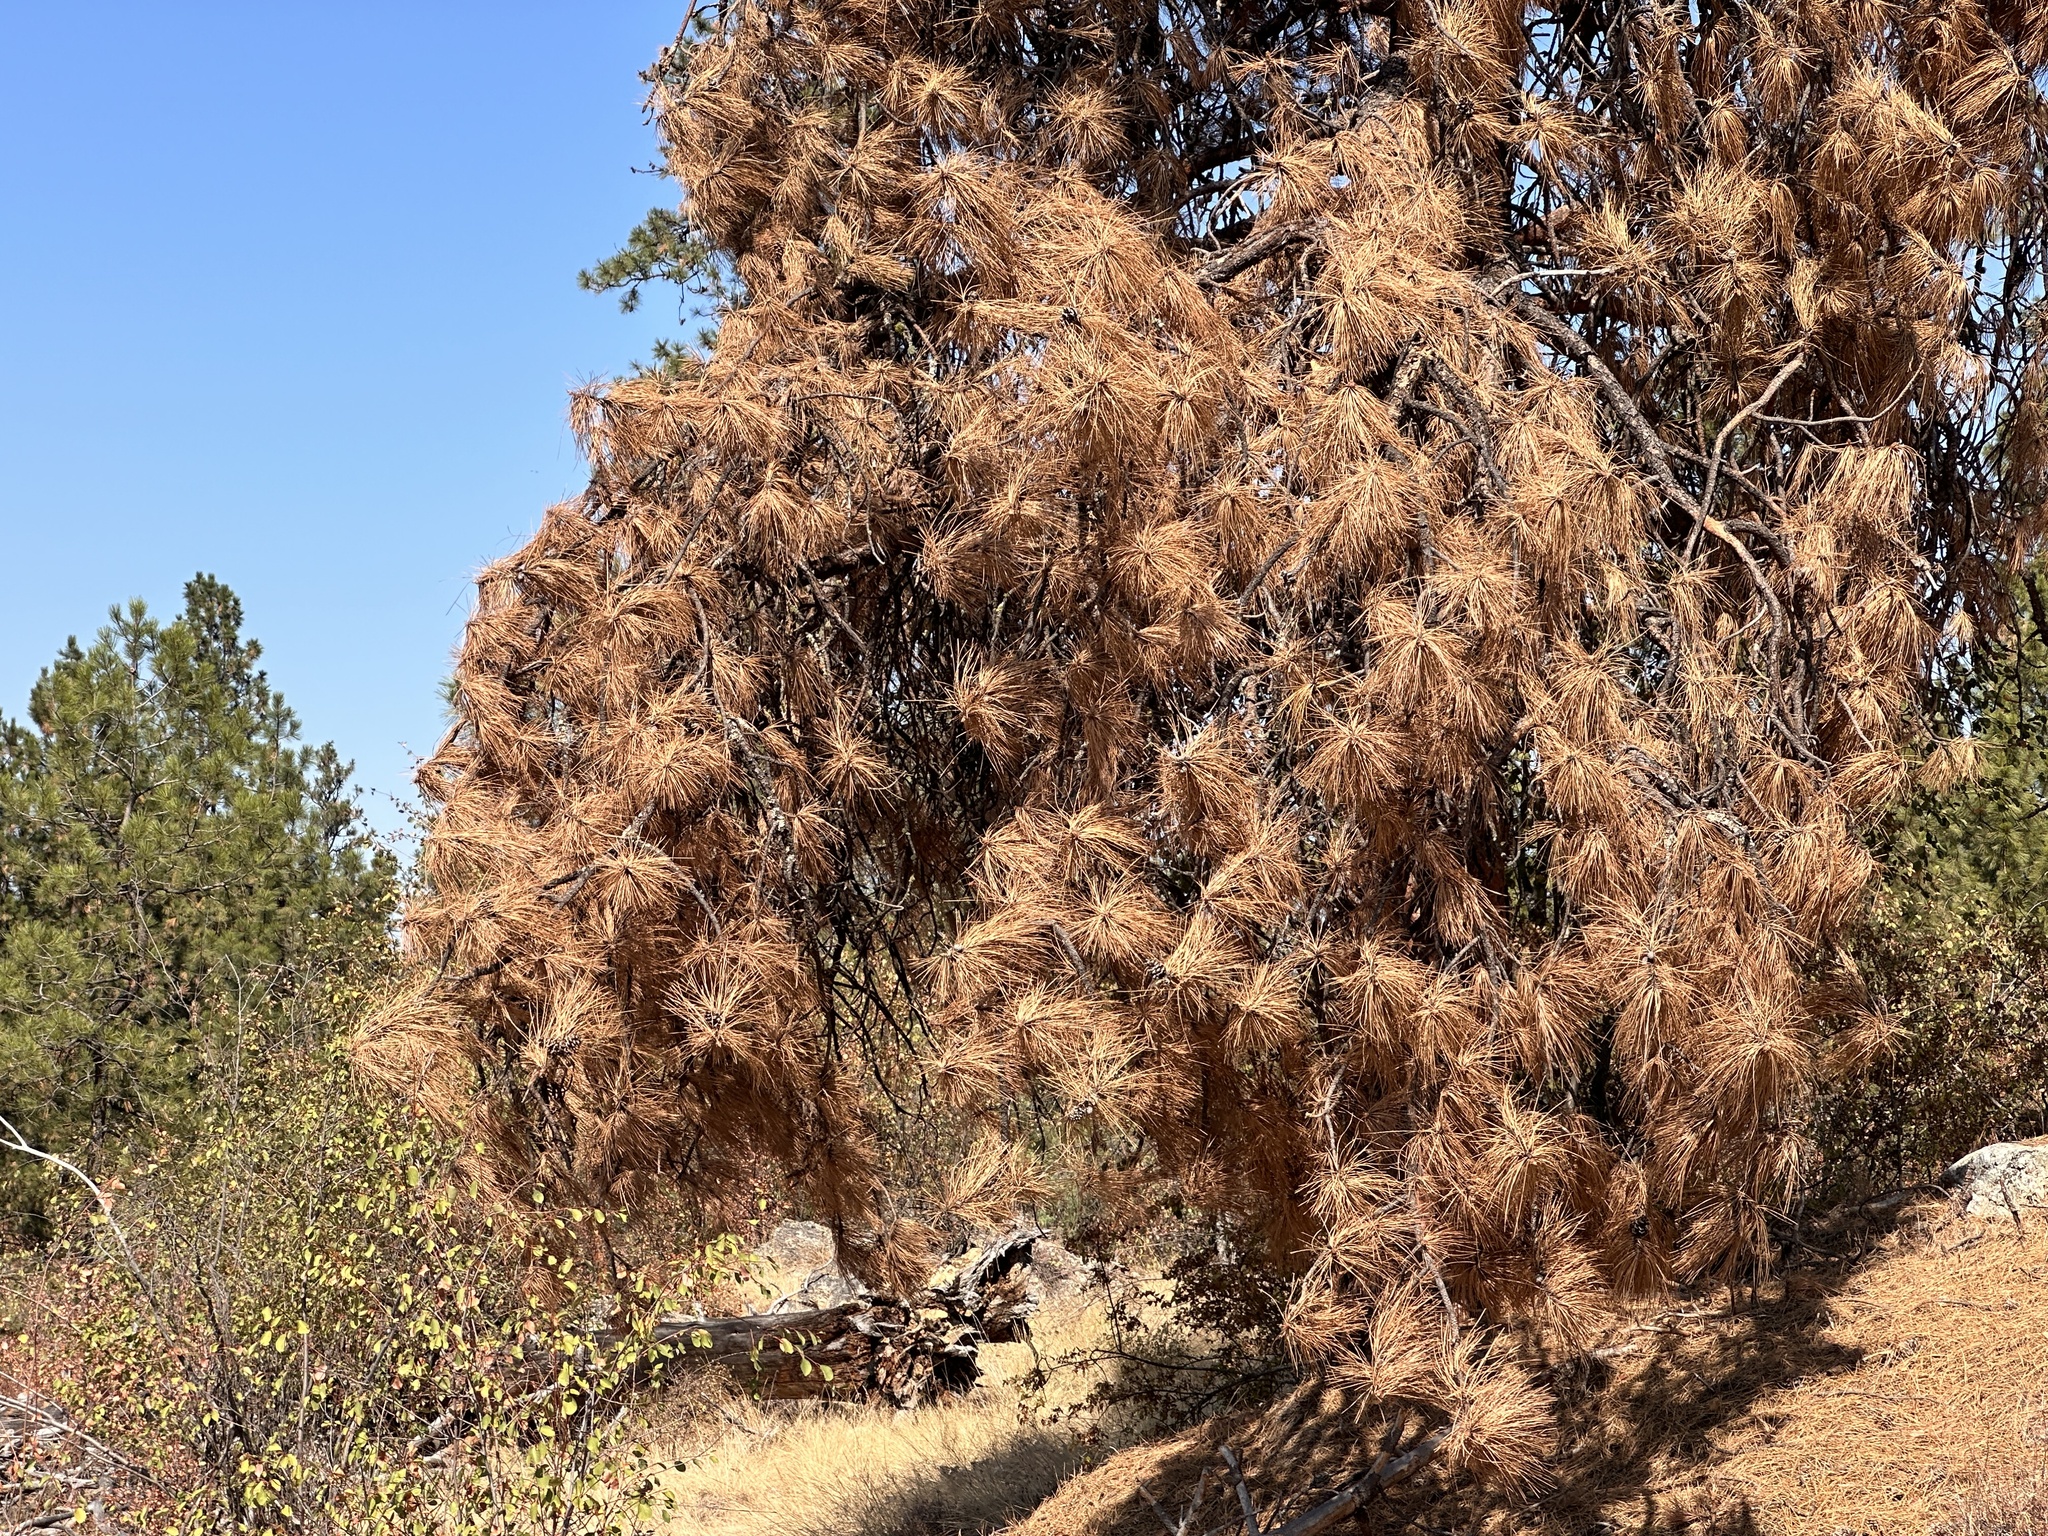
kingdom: Plantae
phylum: Tracheophyta
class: Pinopsida
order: Pinales
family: Pinaceae
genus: Pinus
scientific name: Pinus ponderosa
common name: Western yellow-pine
